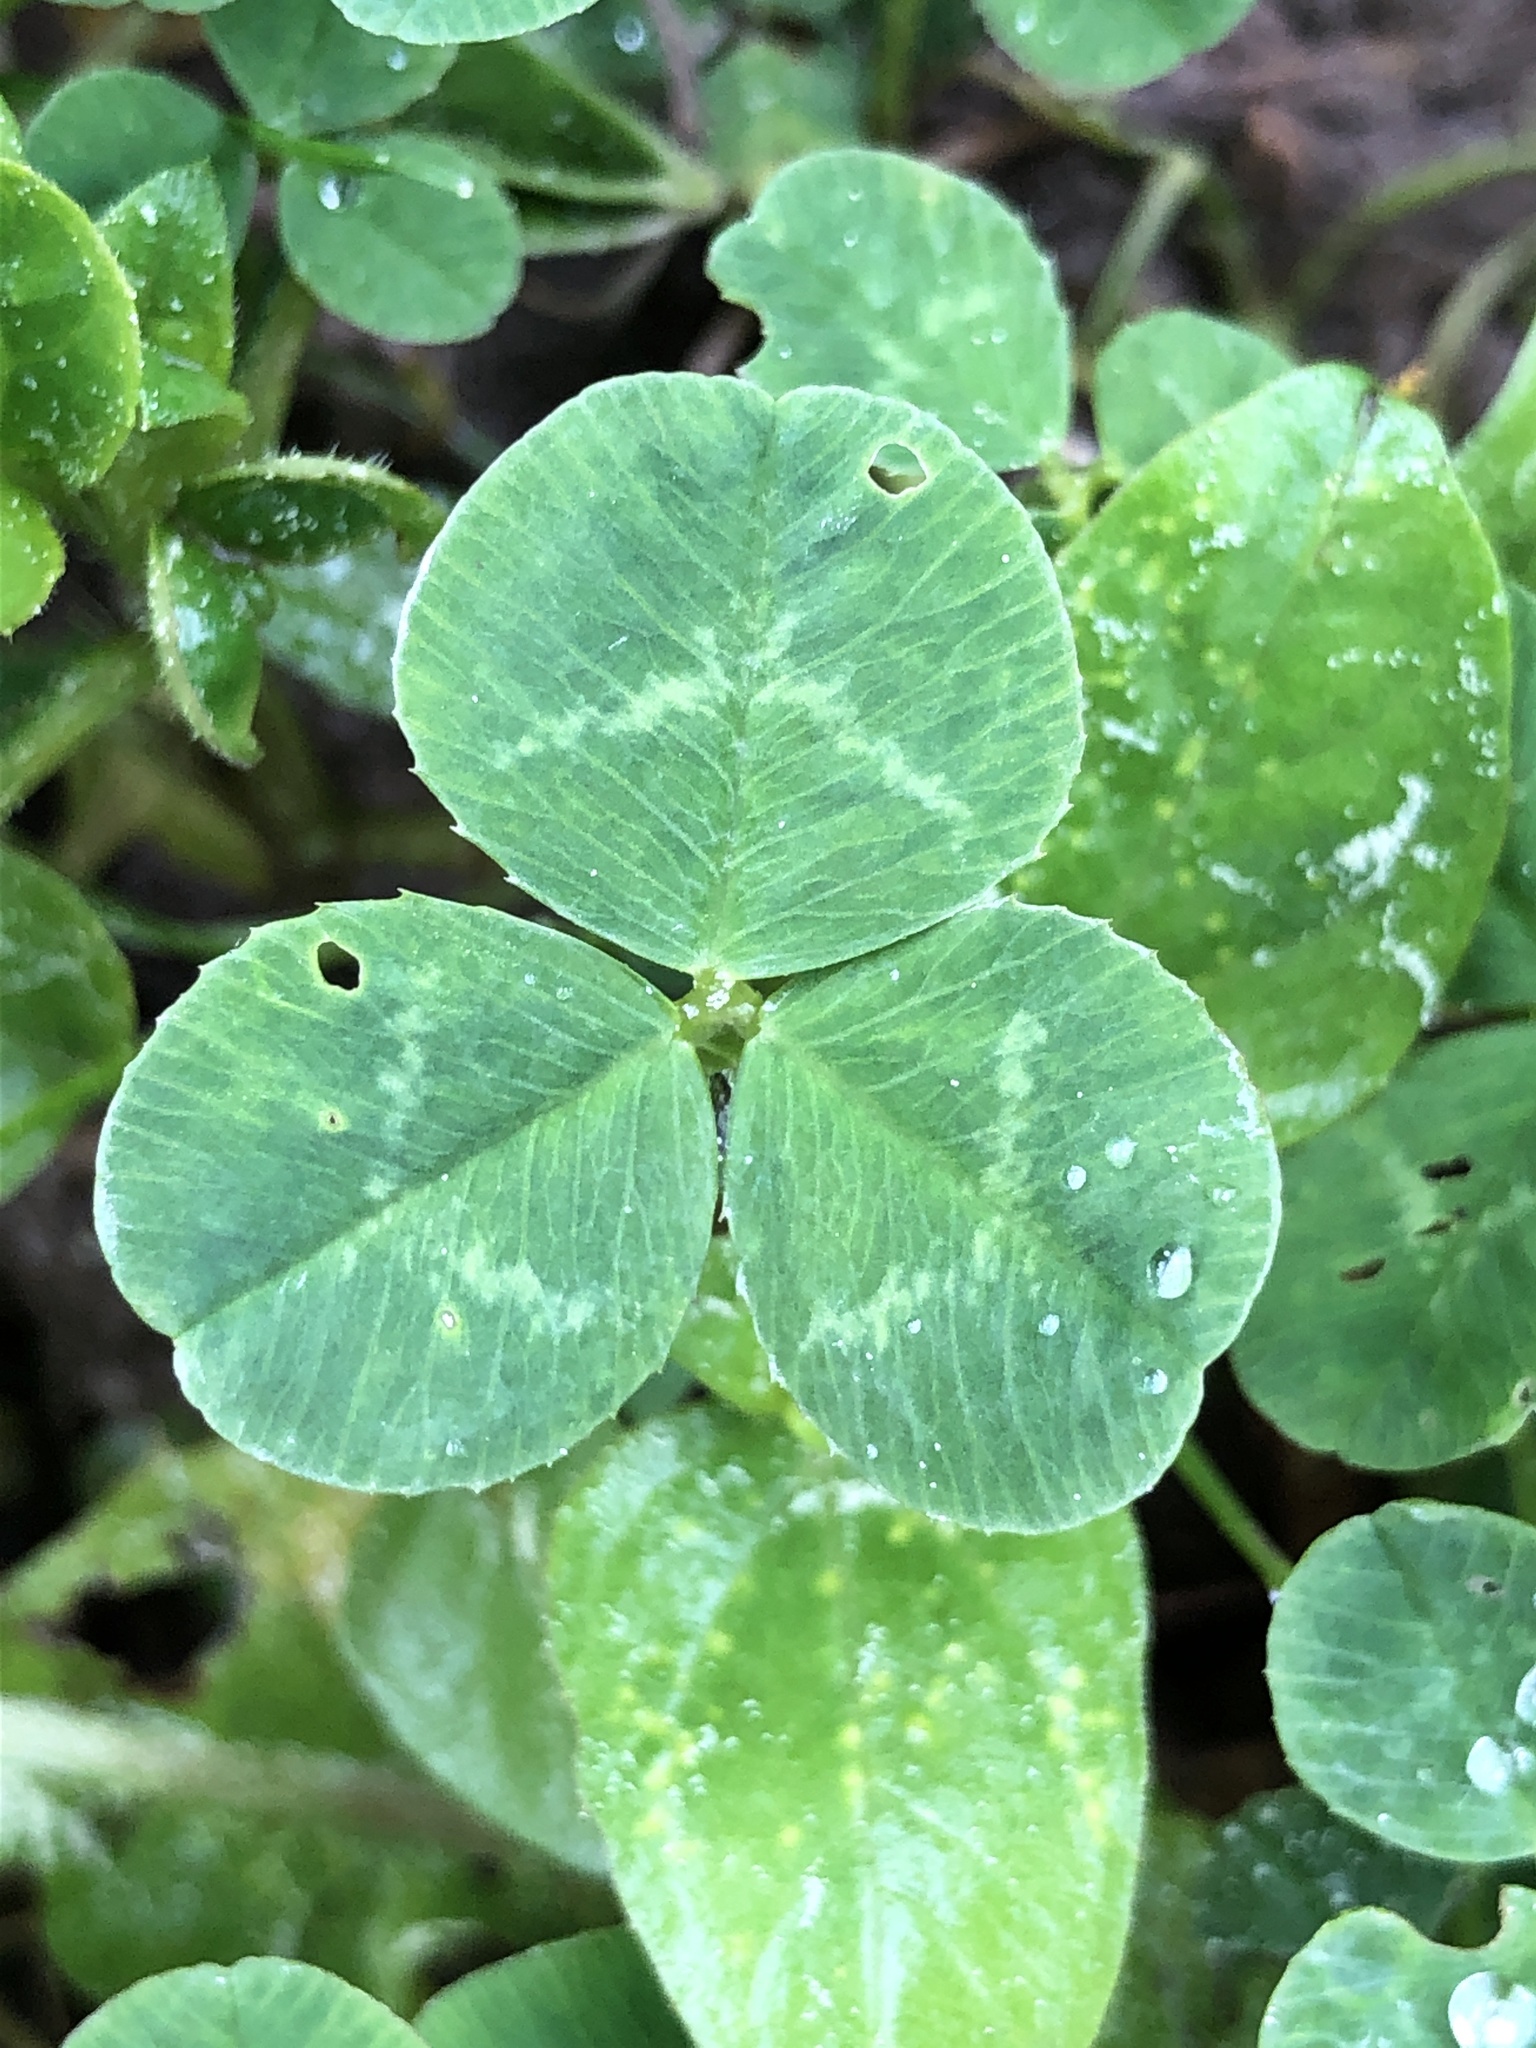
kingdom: Plantae
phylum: Tracheophyta
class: Magnoliopsida
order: Fabales
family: Fabaceae
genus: Trifolium
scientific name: Trifolium repens
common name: White clover
